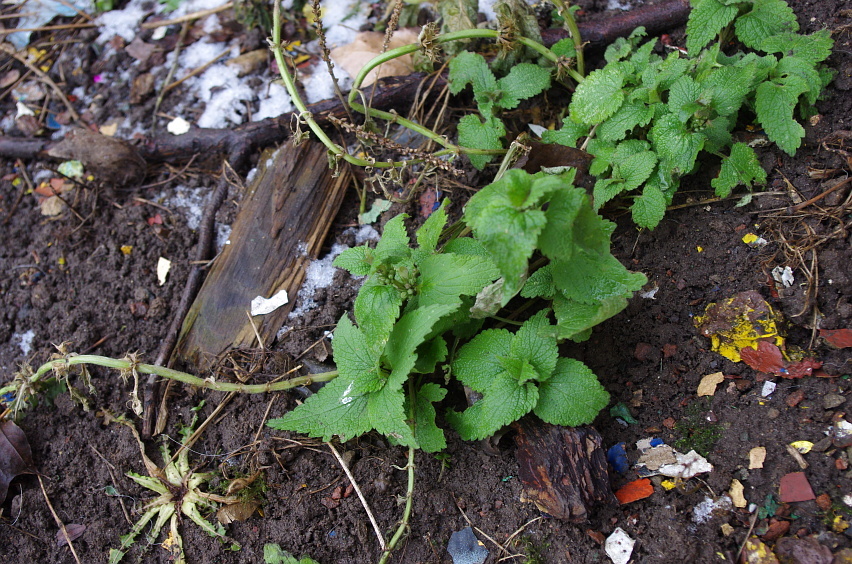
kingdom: Plantae
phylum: Tracheophyta
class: Magnoliopsida
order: Lamiales
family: Lamiaceae
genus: Lamium
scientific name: Lamium album
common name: White dead-nettle
